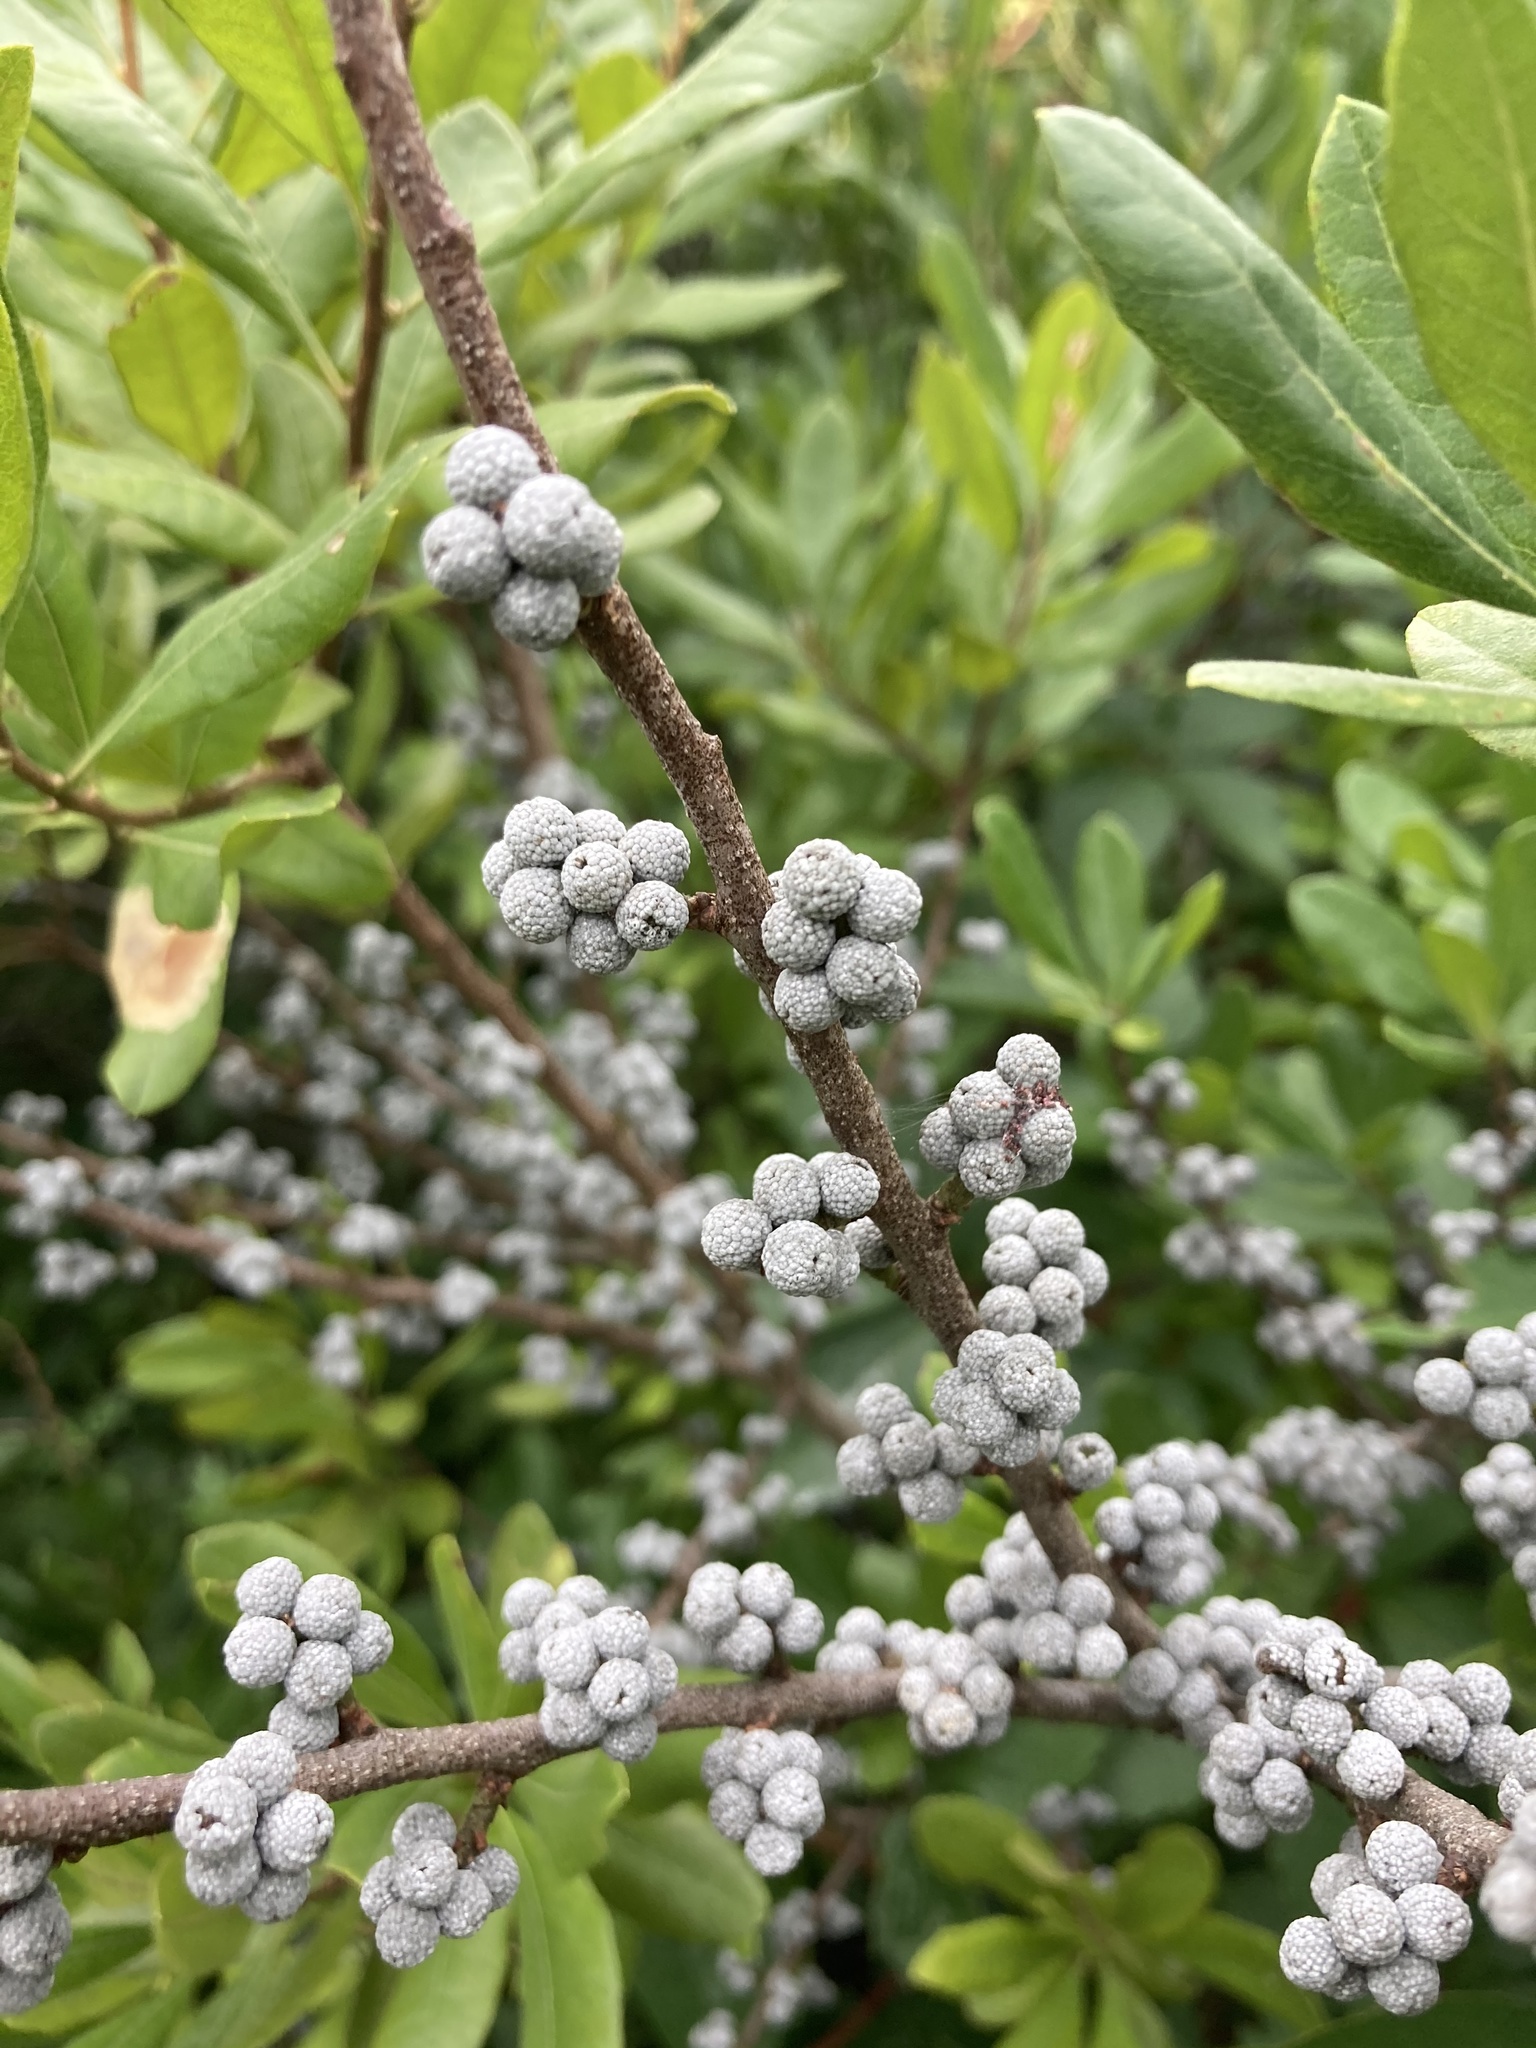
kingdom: Plantae
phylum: Tracheophyta
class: Magnoliopsida
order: Fagales
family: Myricaceae
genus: Morella
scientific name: Morella pensylvanica
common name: Northern bayberry
